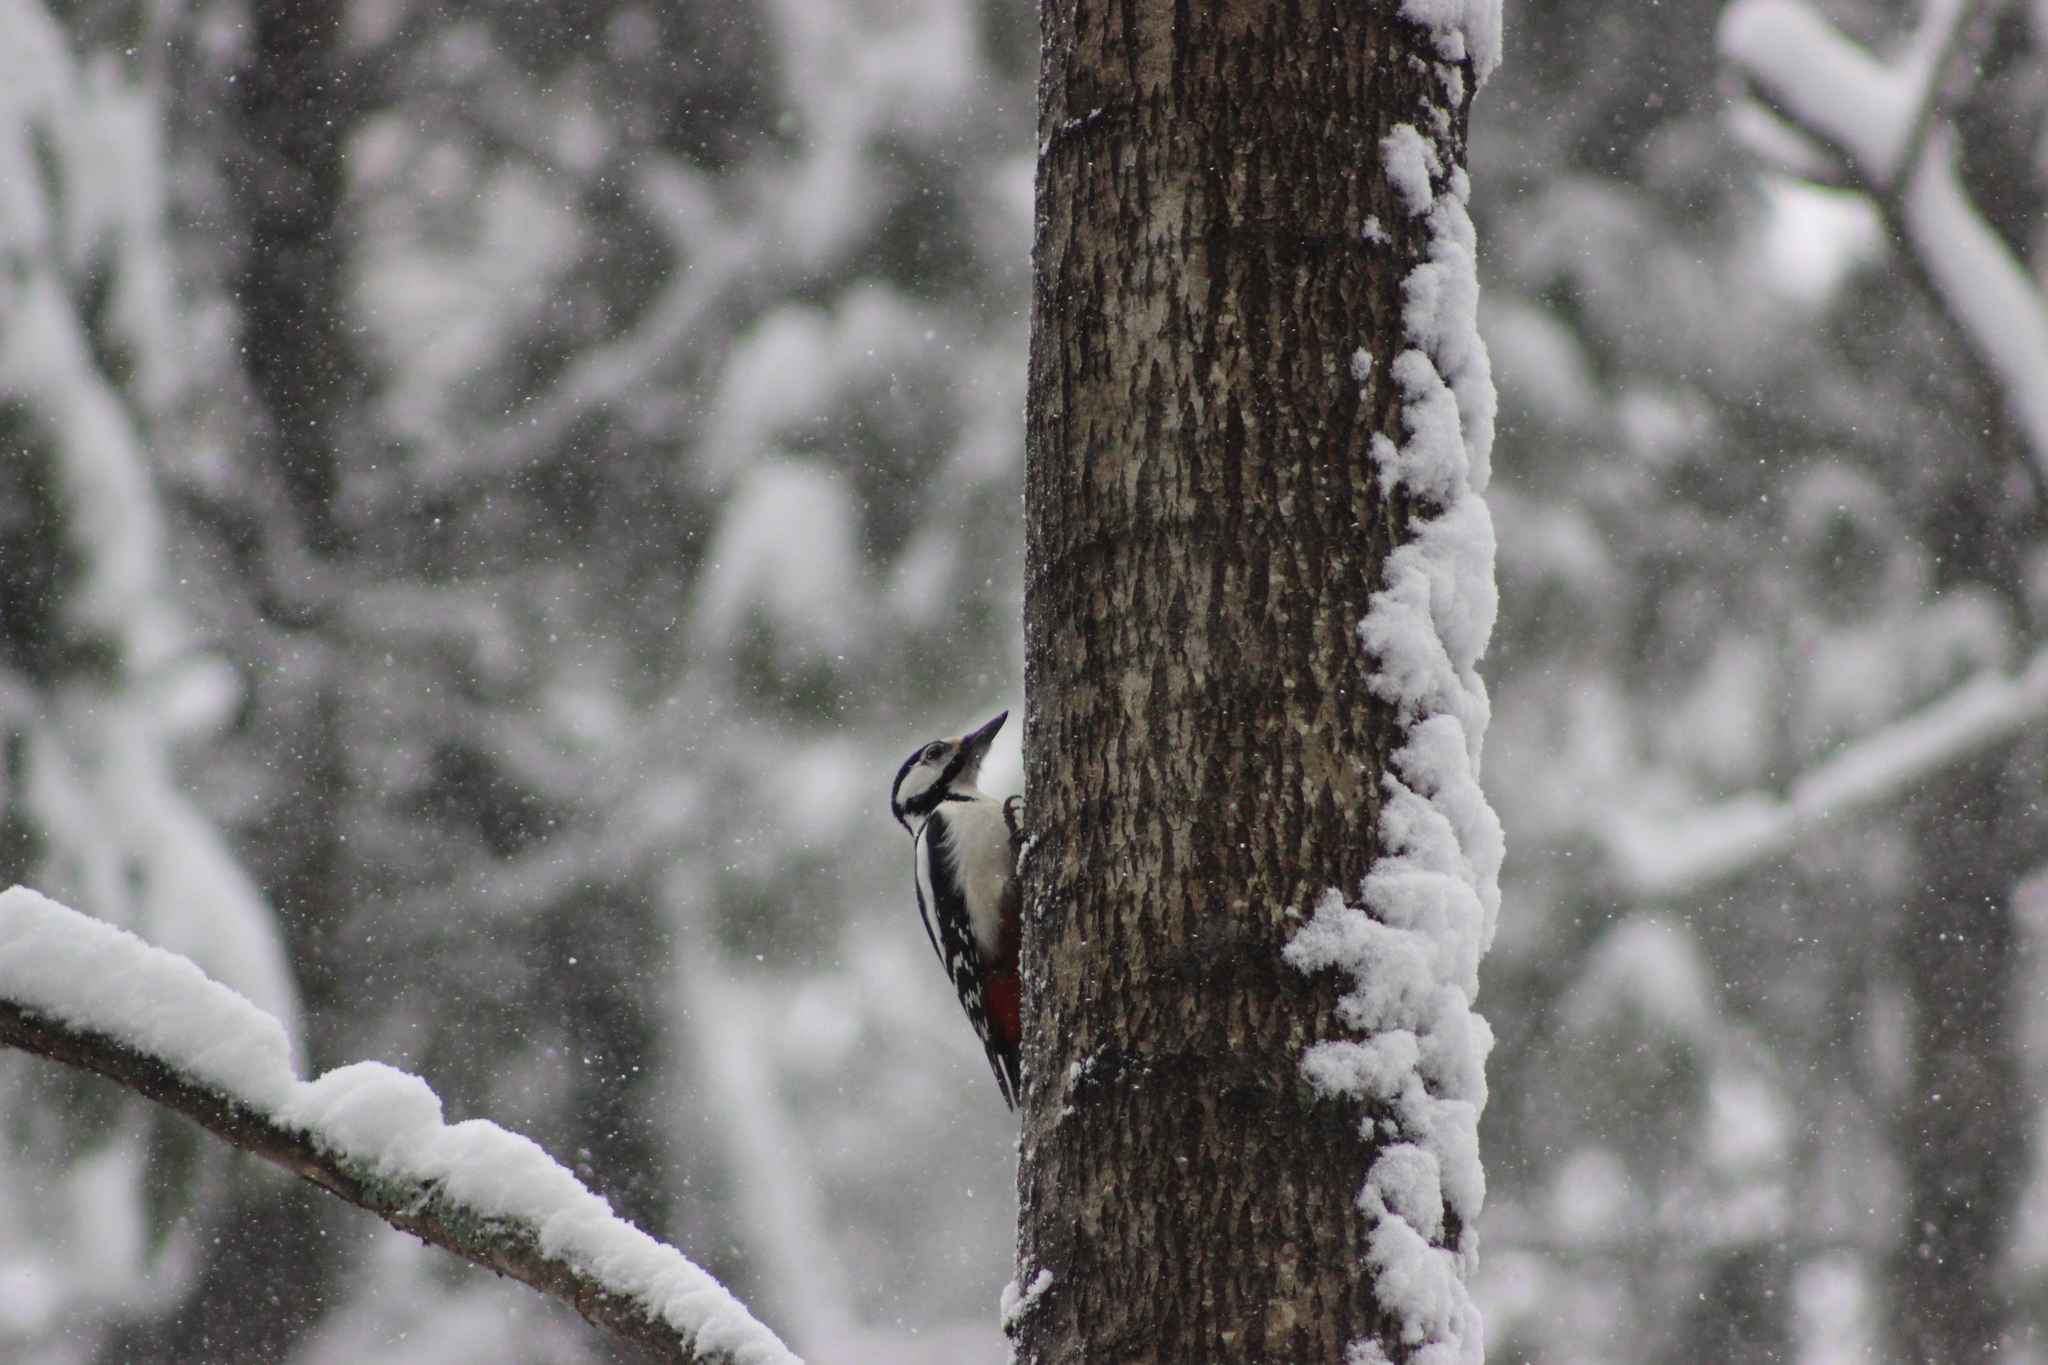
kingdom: Animalia
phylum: Chordata
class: Aves
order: Piciformes
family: Picidae
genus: Dendrocopos
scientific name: Dendrocopos major
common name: Great spotted woodpecker
